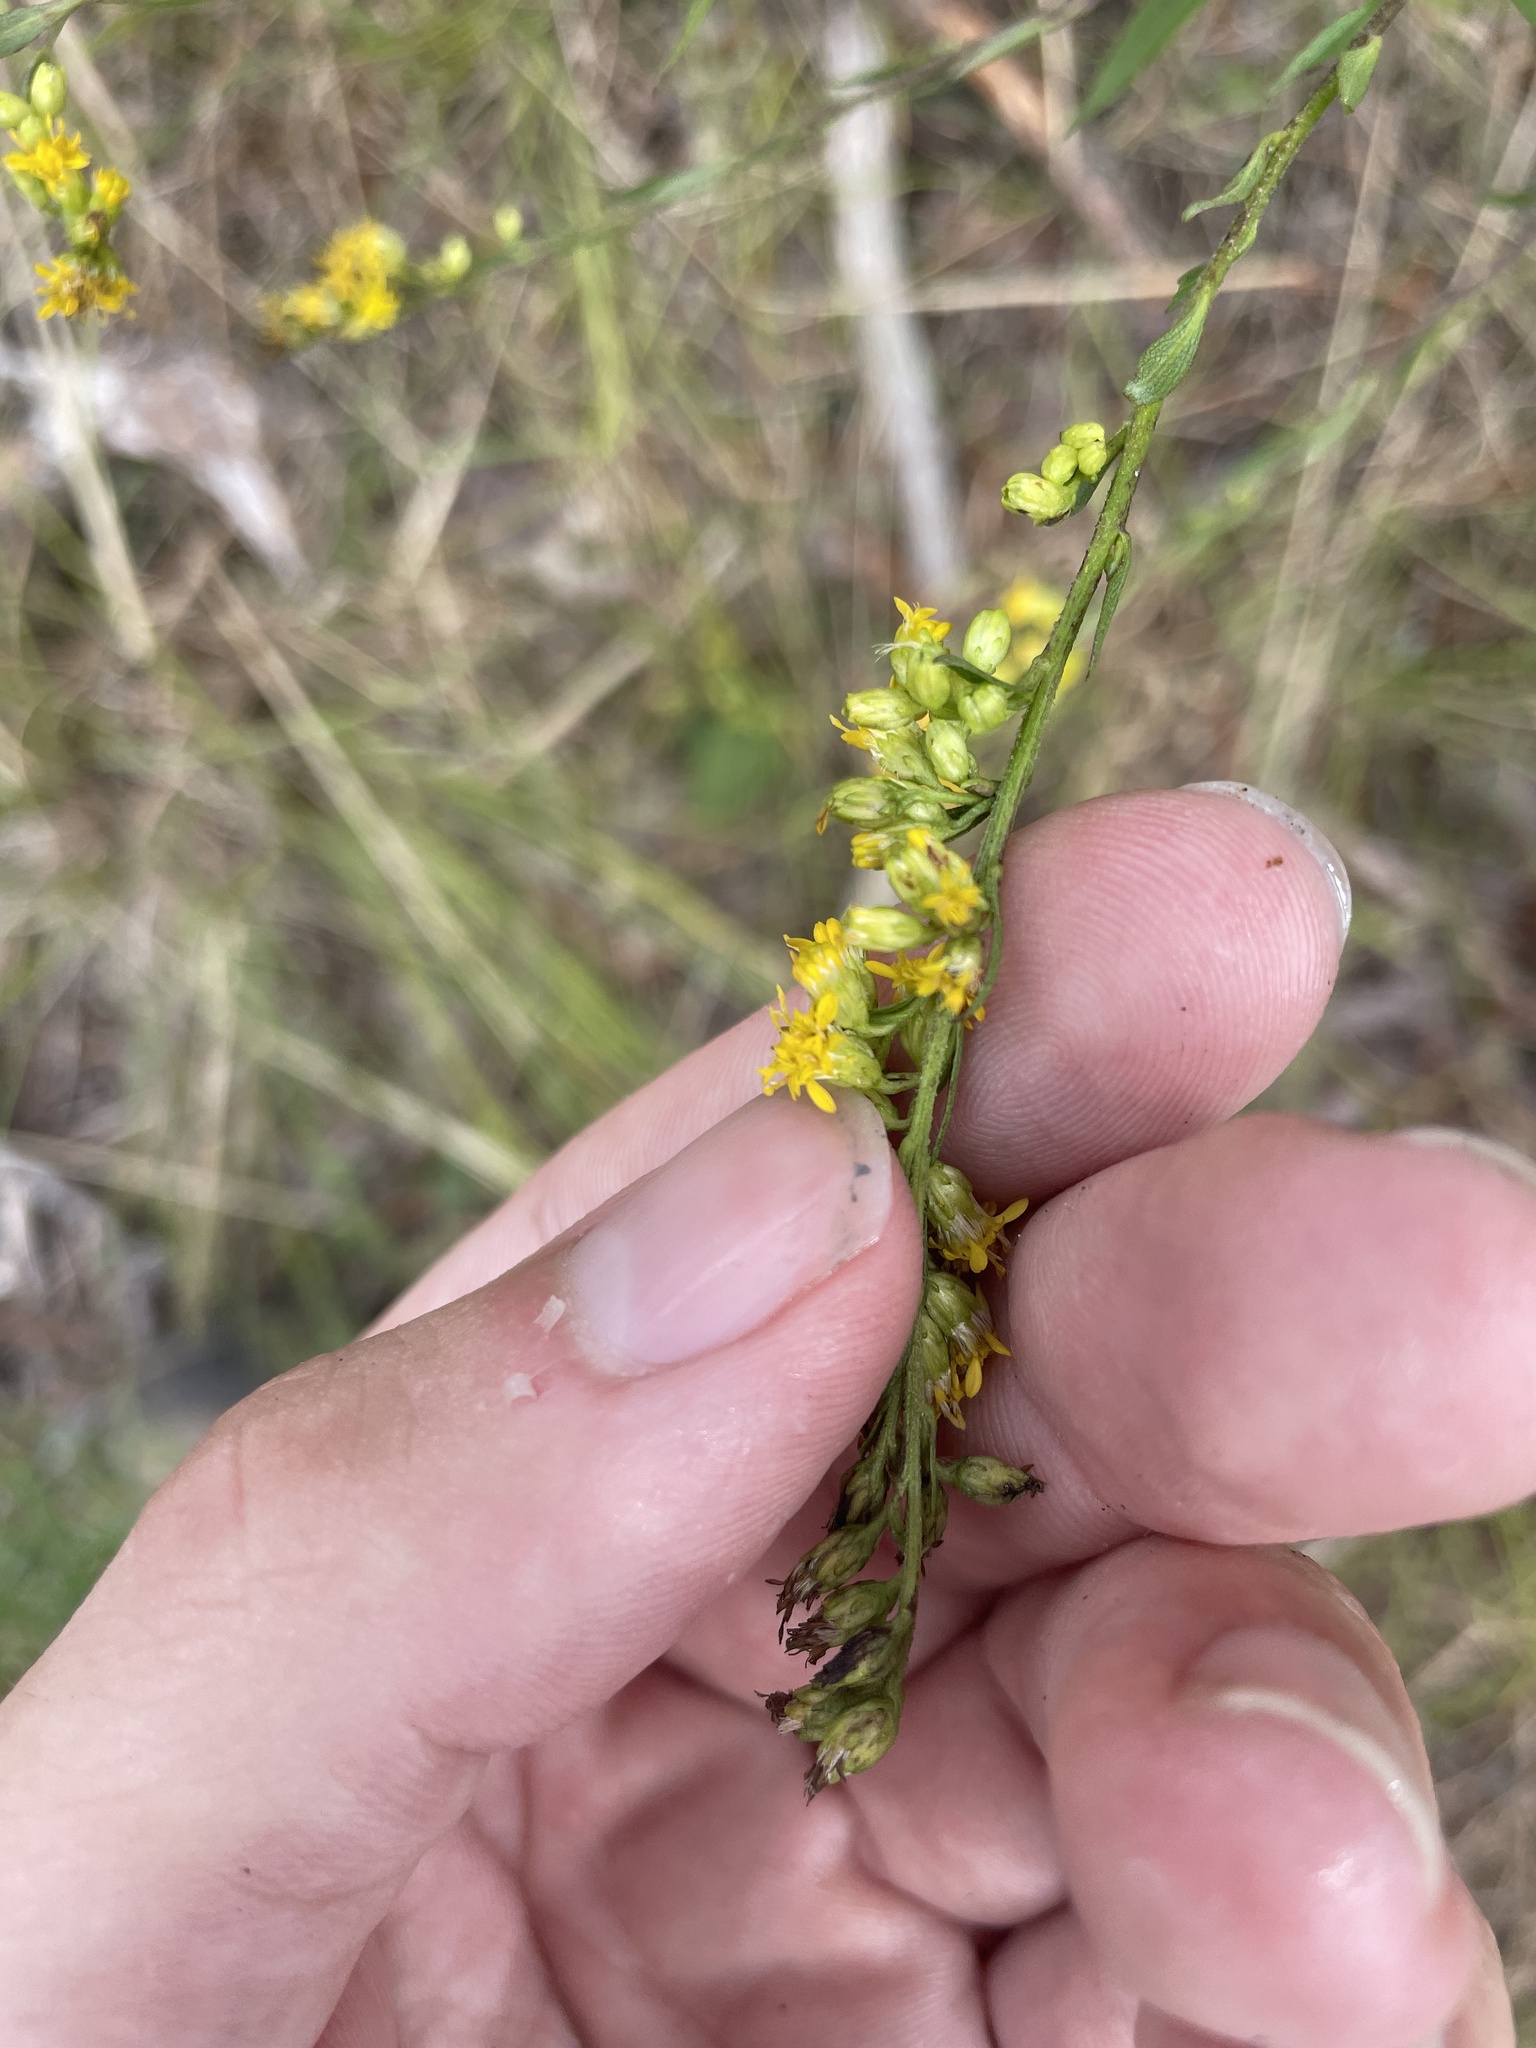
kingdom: Plantae
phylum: Tracheophyta
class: Magnoliopsida
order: Asterales
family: Asteraceae
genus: Solidago
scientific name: Solidago juncea
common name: Early goldenrod
